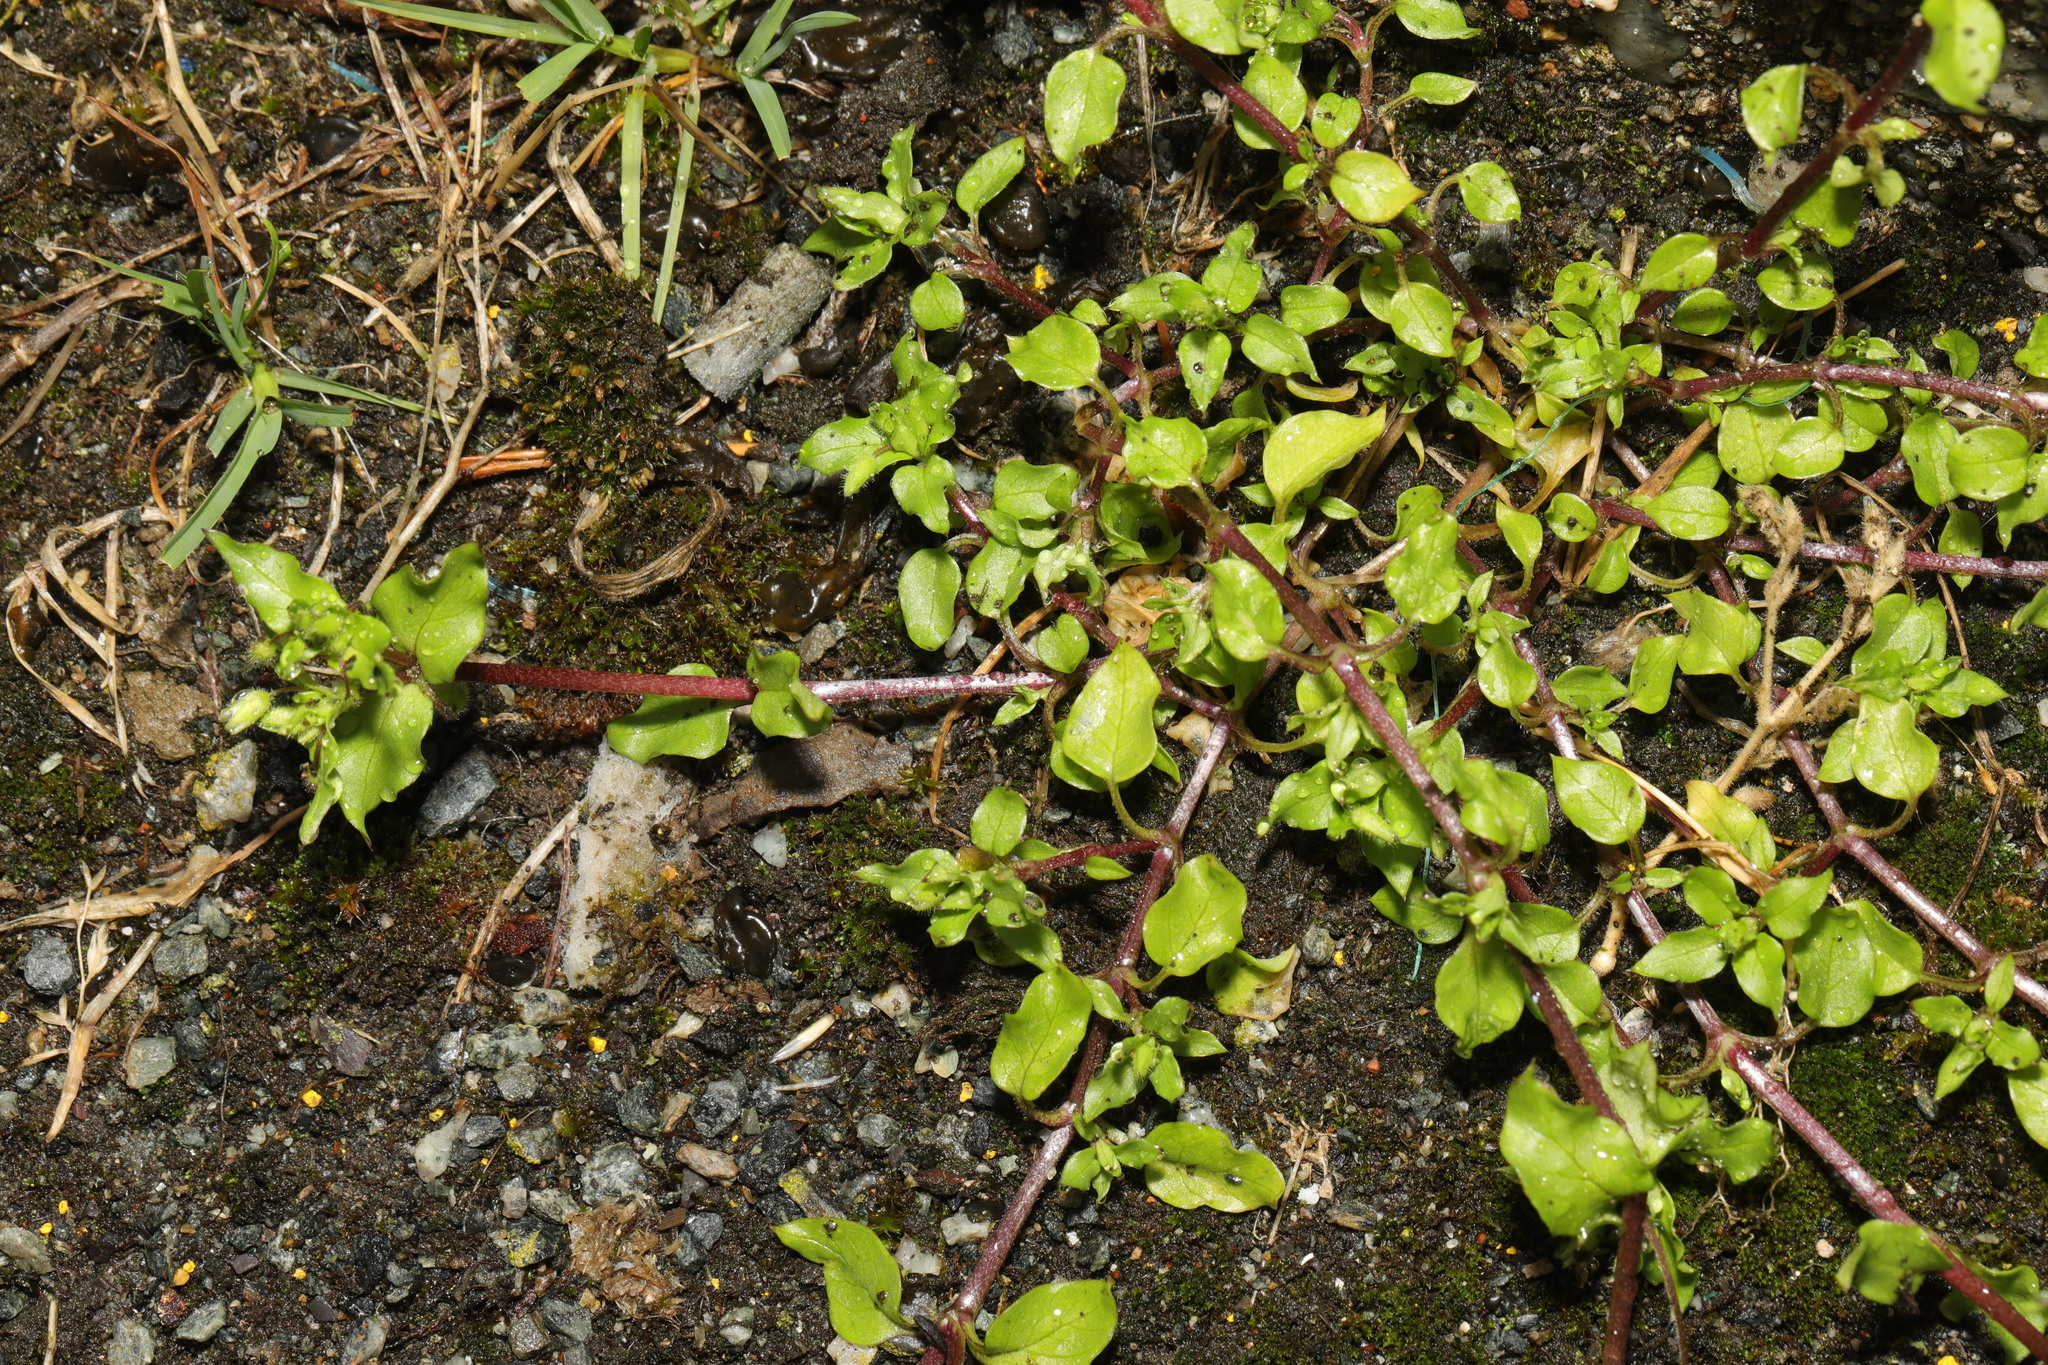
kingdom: Plantae
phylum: Tracheophyta
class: Magnoliopsida
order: Caryophyllales
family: Caryophyllaceae
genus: Stellaria
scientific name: Stellaria media
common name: Common chickweed
